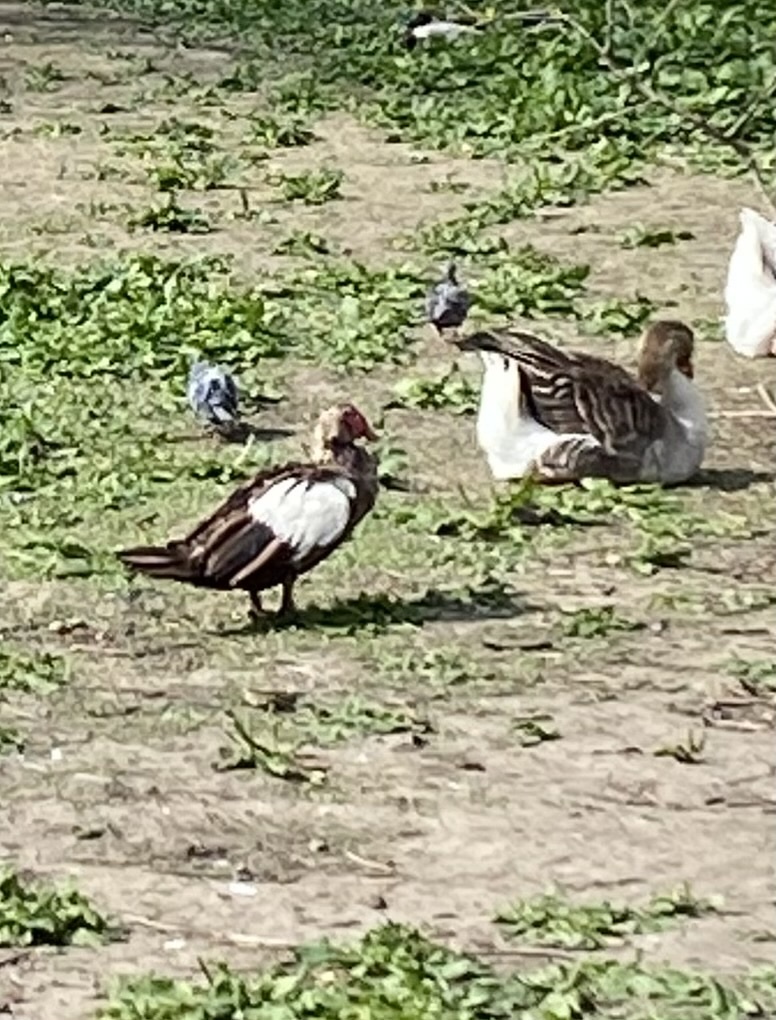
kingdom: Animalia
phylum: Chordata
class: Aves
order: Anseriformes
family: Anatidae
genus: Anser
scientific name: Anser anser
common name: Greylag goose
